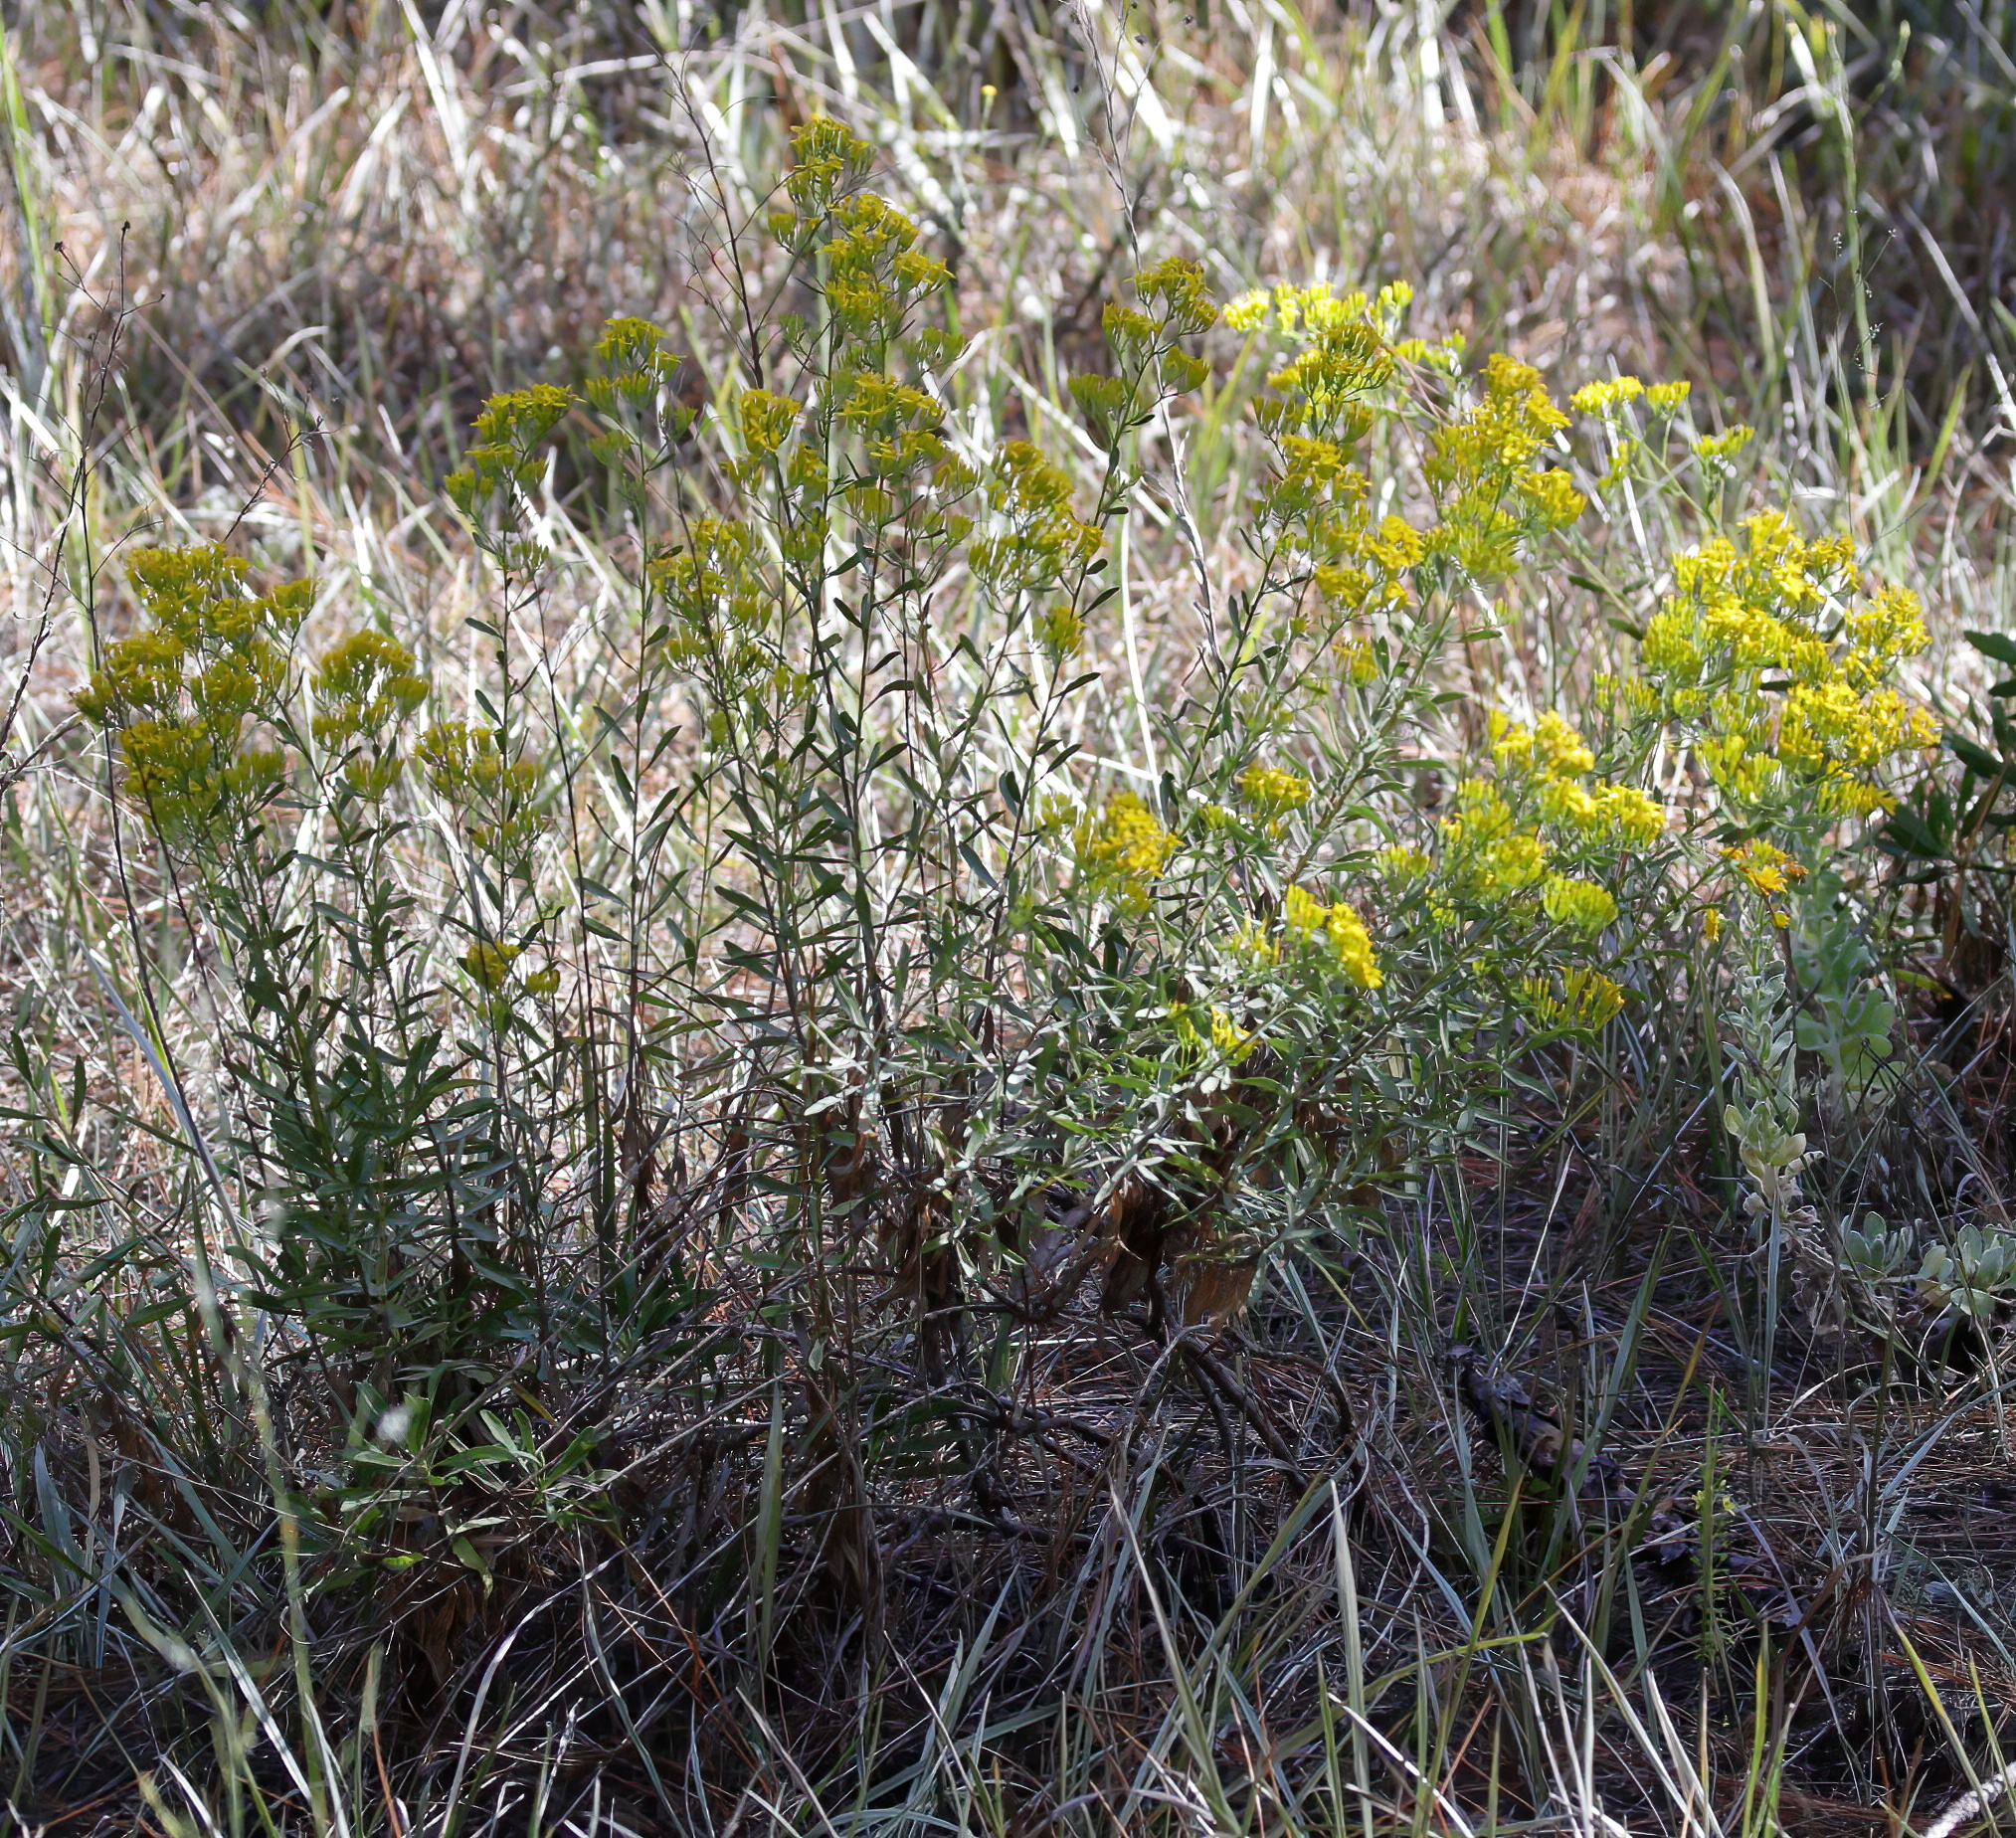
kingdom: Plantae
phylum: Tracheophyta
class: Magnoliopsida
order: Asterales
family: Asteraceae
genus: Chrysoma
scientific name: Chrysoma pauciflosculosa
